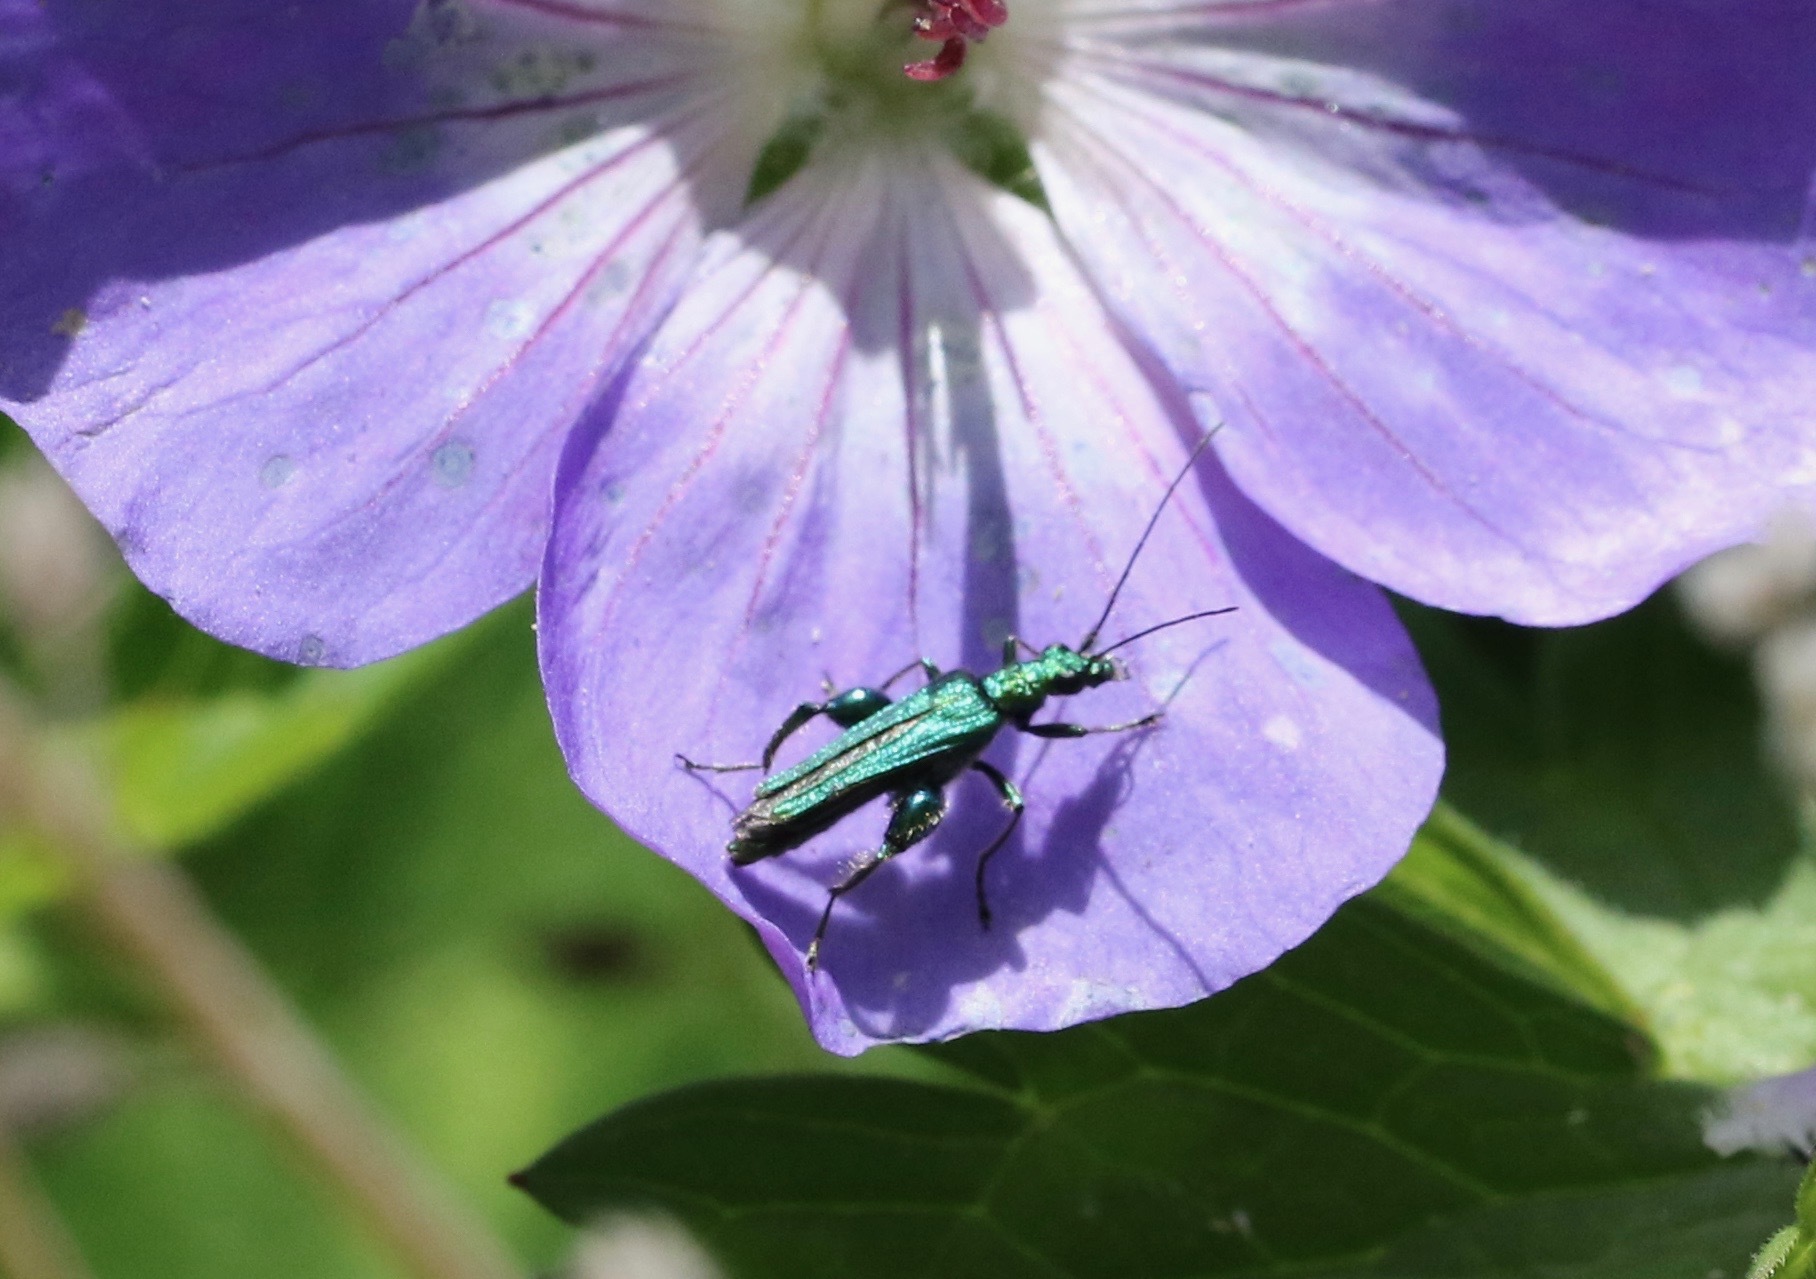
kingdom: Animalia
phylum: Arthropoda
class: Insecta
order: Coleoptera
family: Oedemeridae
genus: Oedemera
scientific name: Oedemera nobilis
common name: Swollen-thighed beetle
